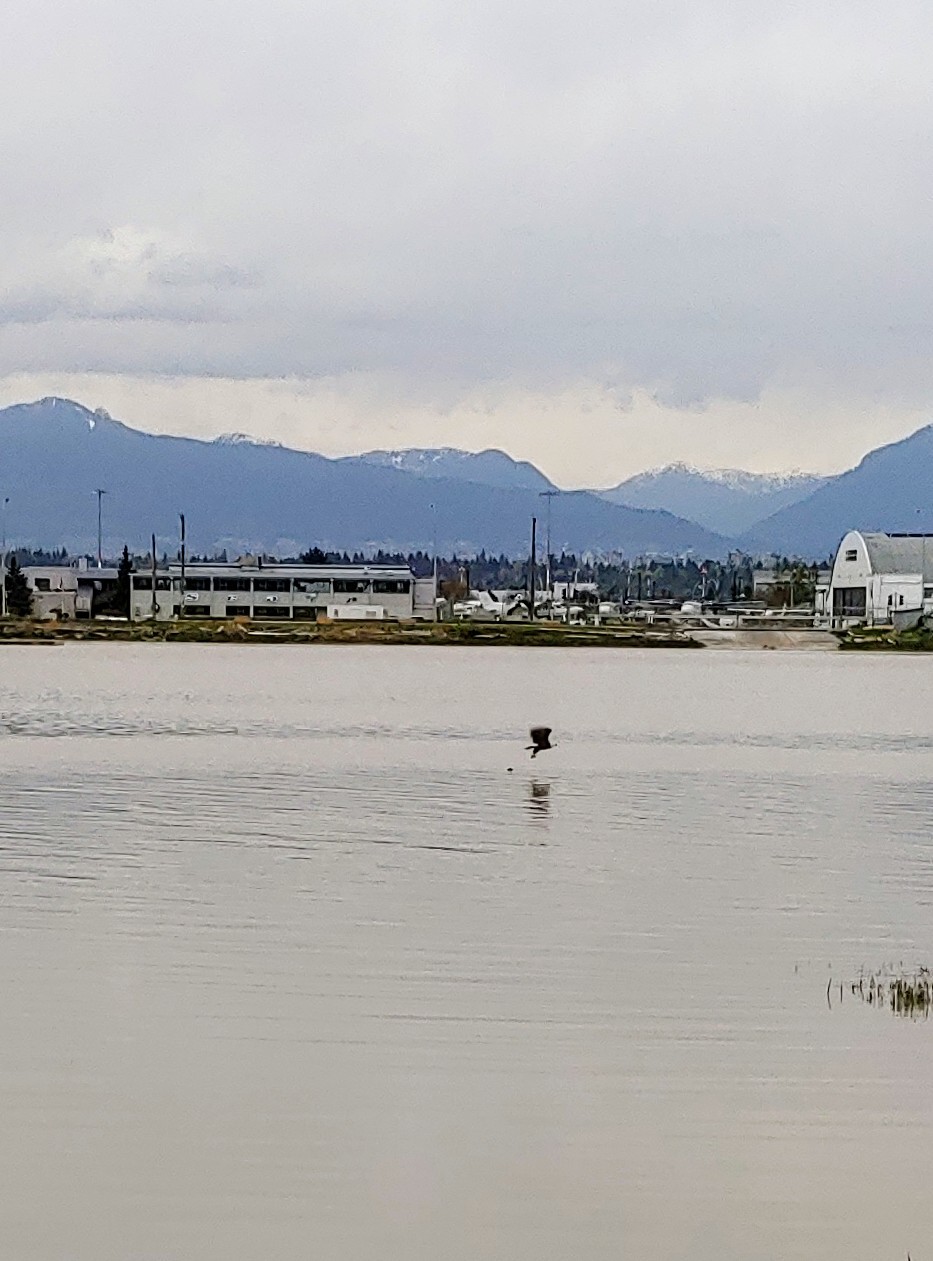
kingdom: Animalia
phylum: Chordata
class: Aves
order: Accipitriformes
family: Accipitridae
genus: Haliaeetus
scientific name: Haliaeetus leucocephalus
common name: Bald eagle
